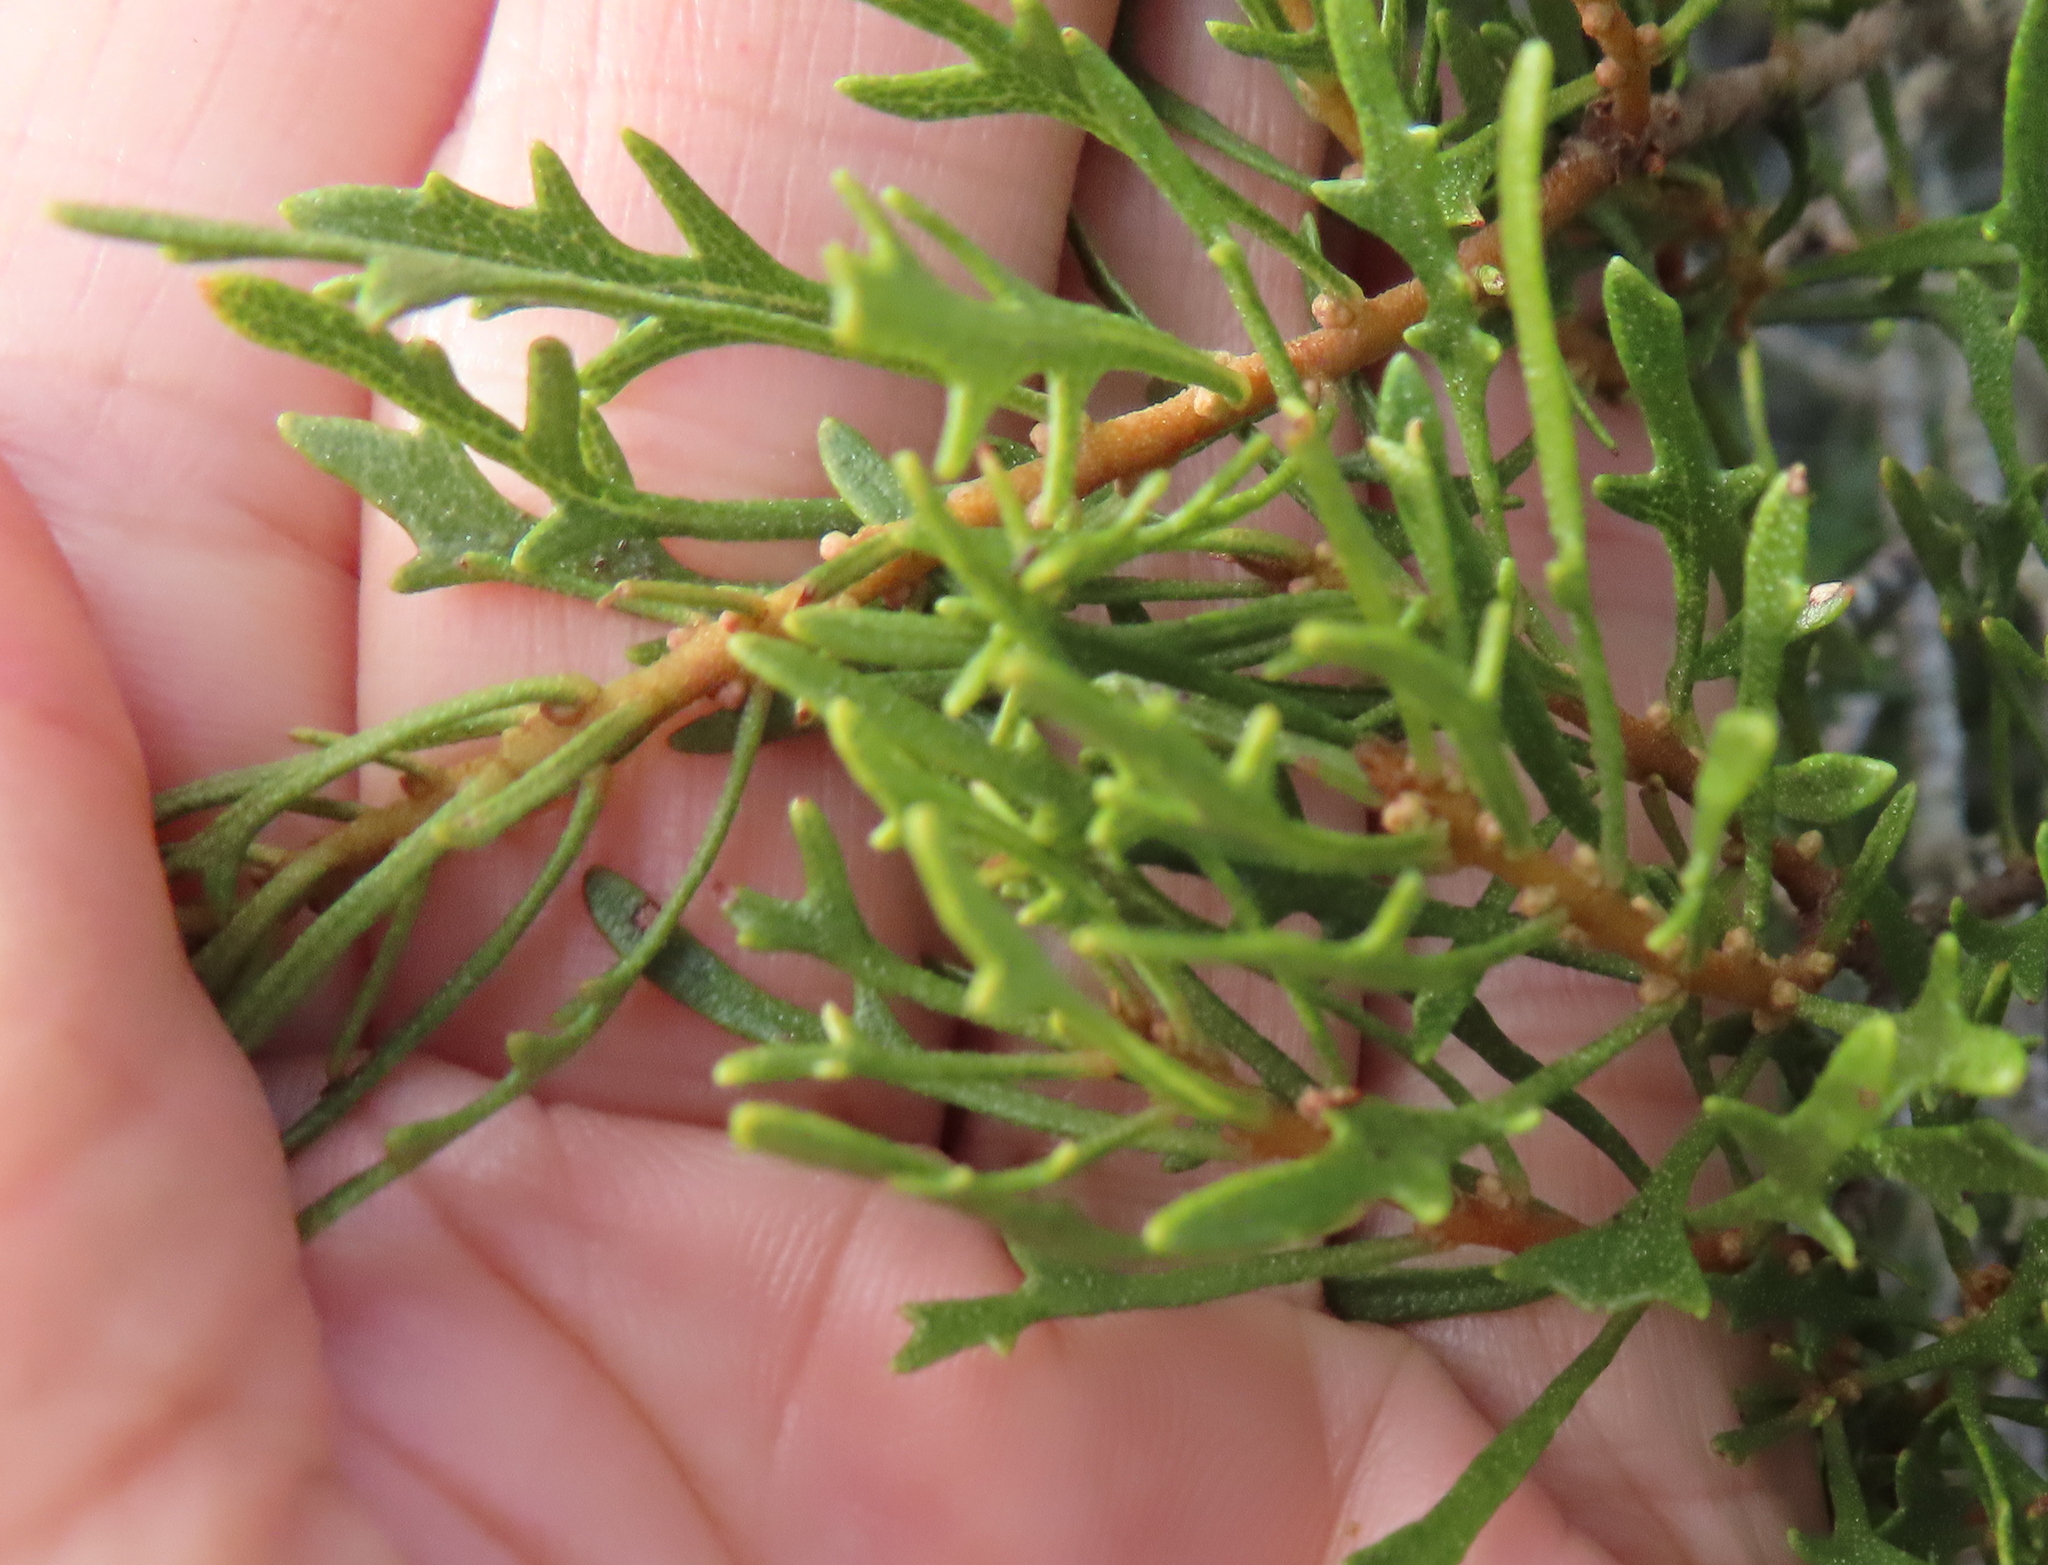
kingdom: Plantae
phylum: Tracheophyta
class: Magnoliopsida
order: Fagales
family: Myricaceae
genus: Morella
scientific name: Morella quercifolia
